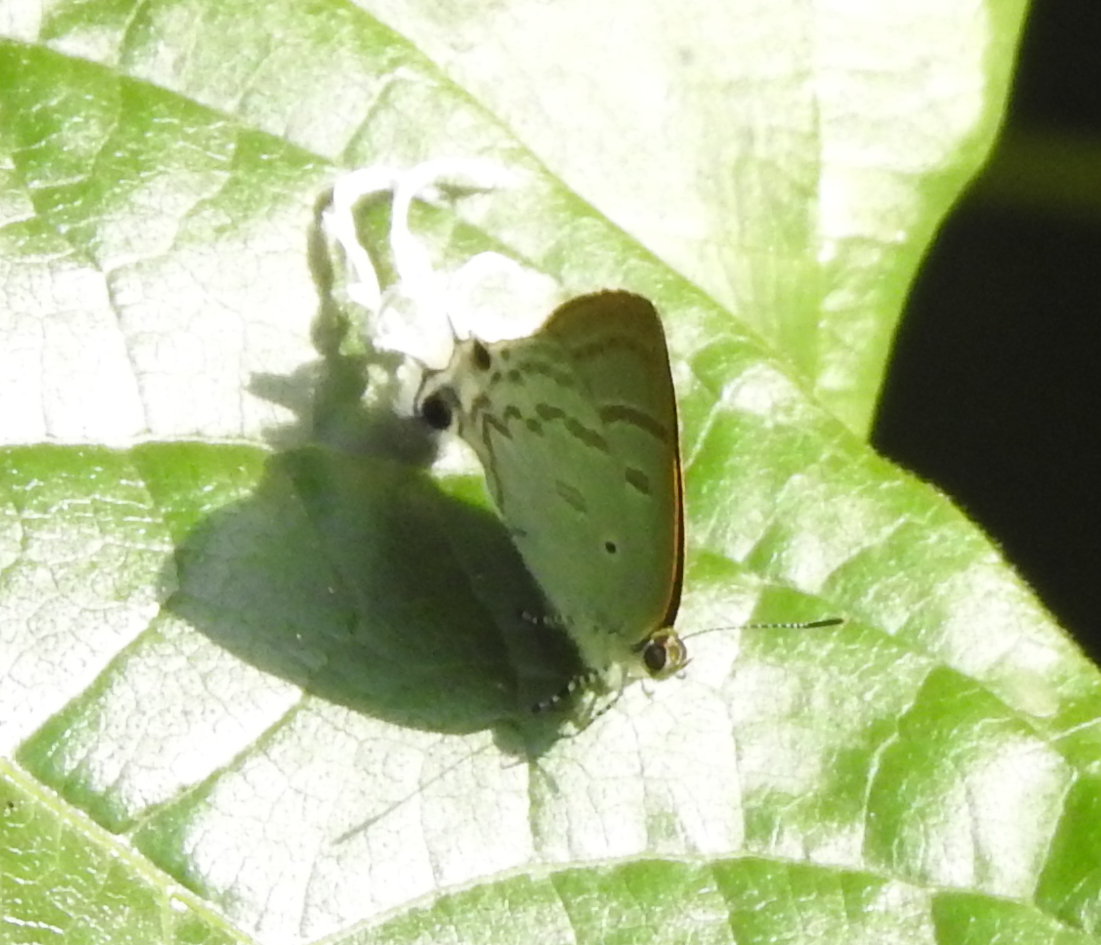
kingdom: Animalia
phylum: Arthropoda
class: Insecta
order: Lepidoptera
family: Lycaenidae
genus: Zeltus
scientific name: Zeltus amasa
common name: Fluffy tit
